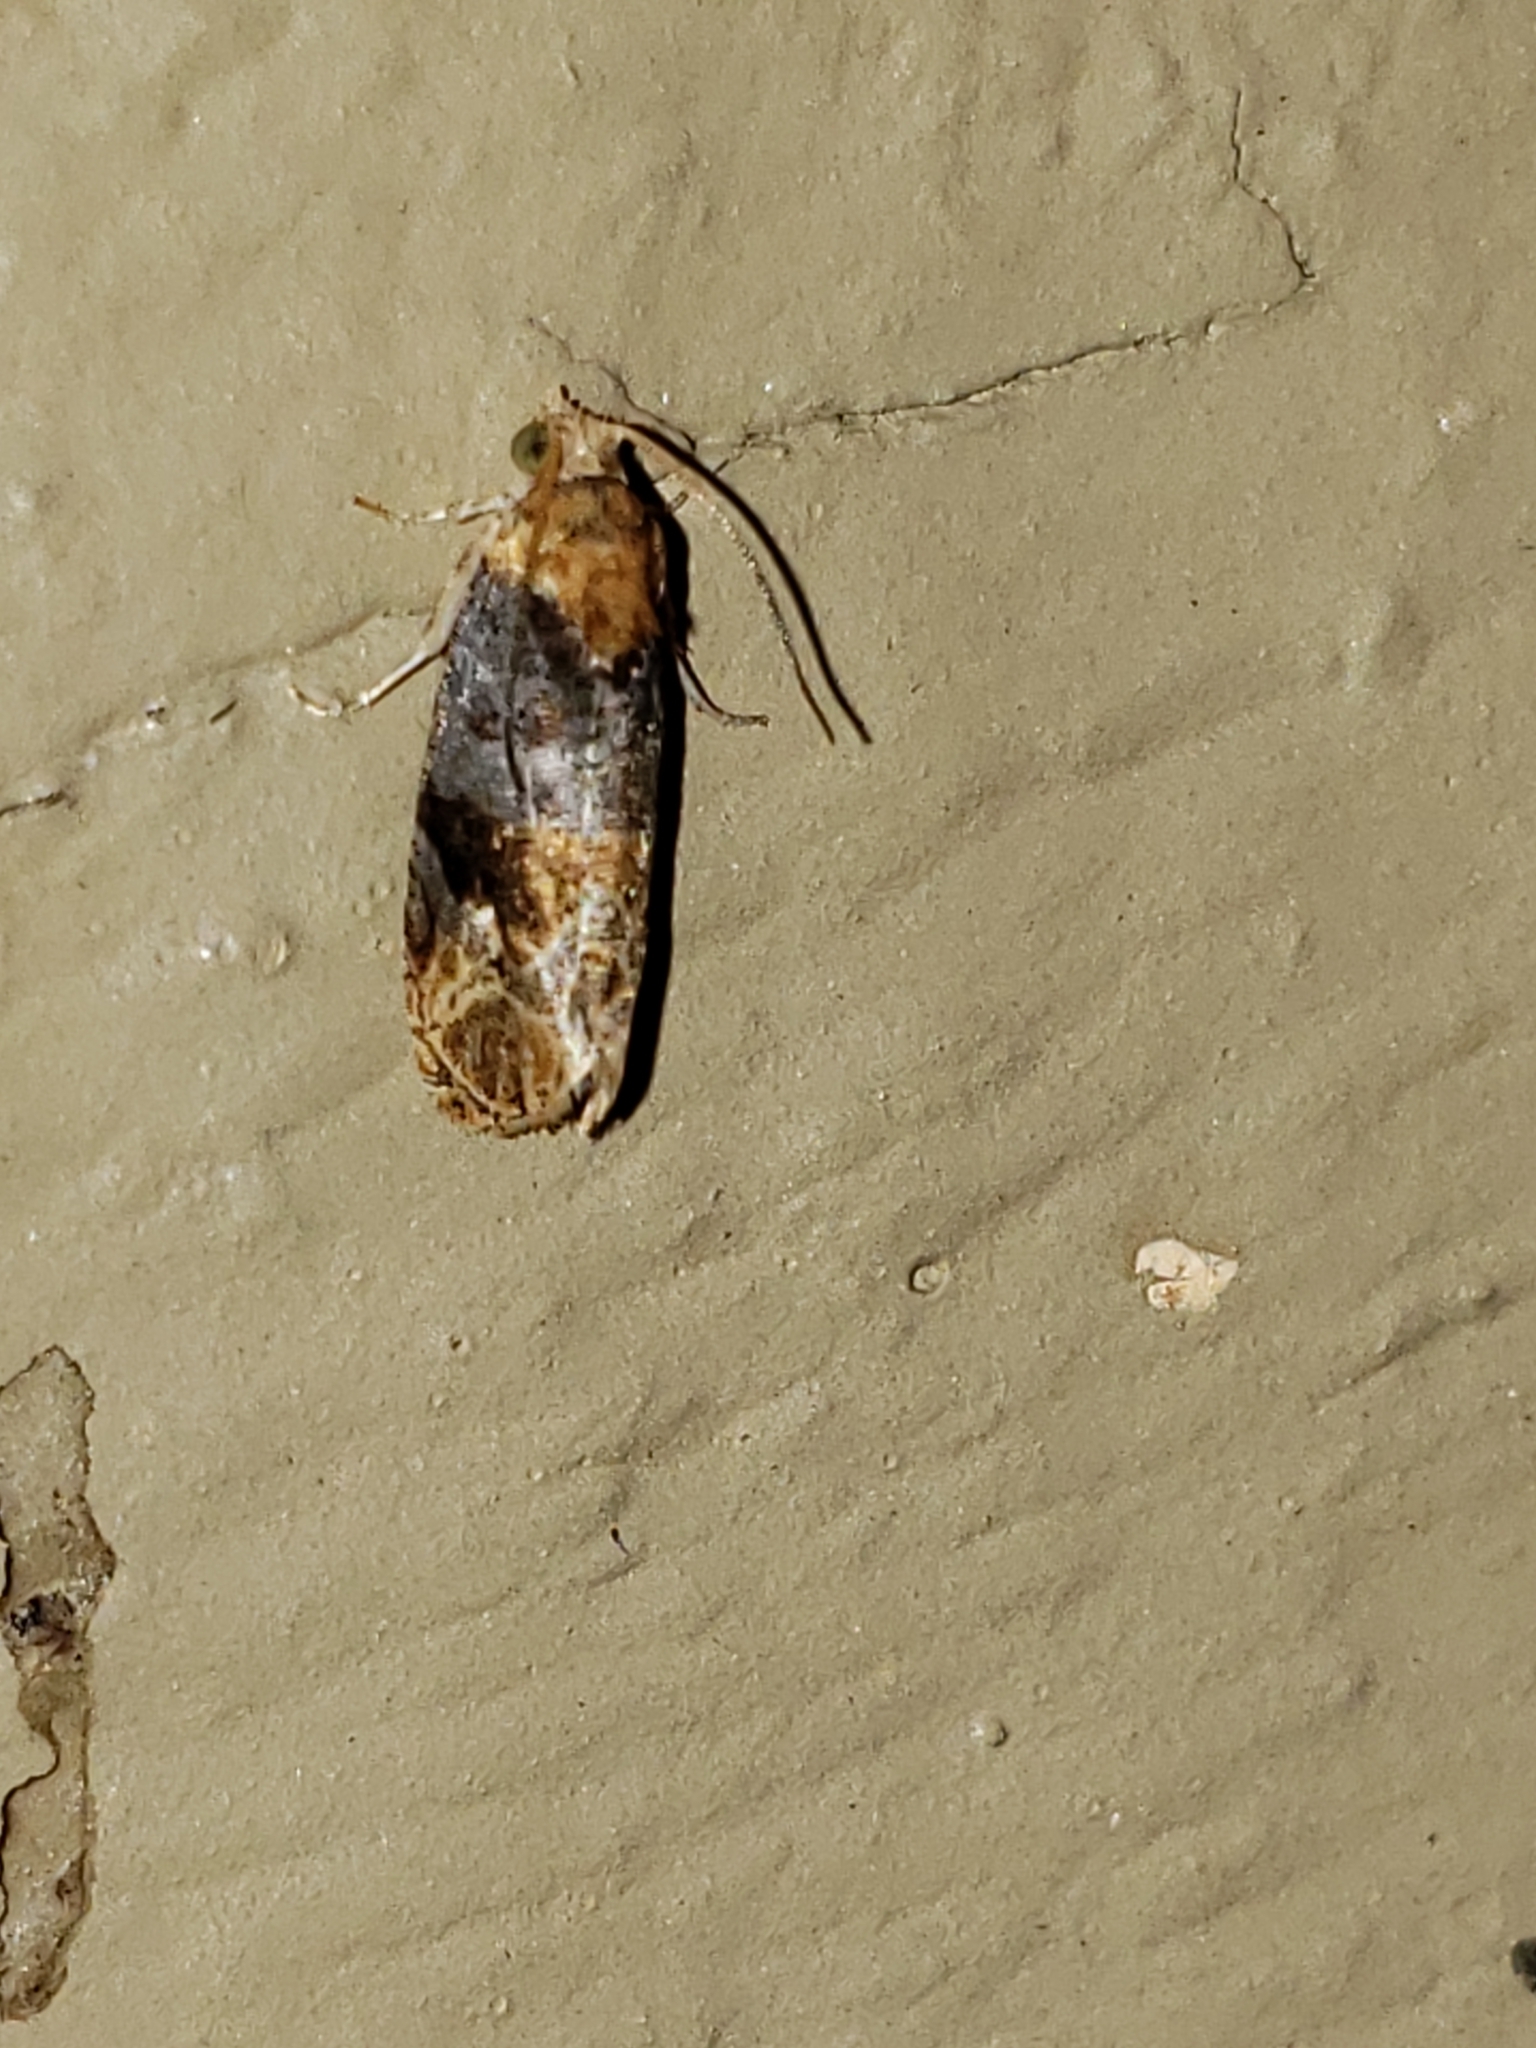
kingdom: Animalia
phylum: Arthropoda
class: Insecta
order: Lepidoptera
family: Tortricidae
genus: Paralobesia
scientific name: Paralobesia liriodendrana
